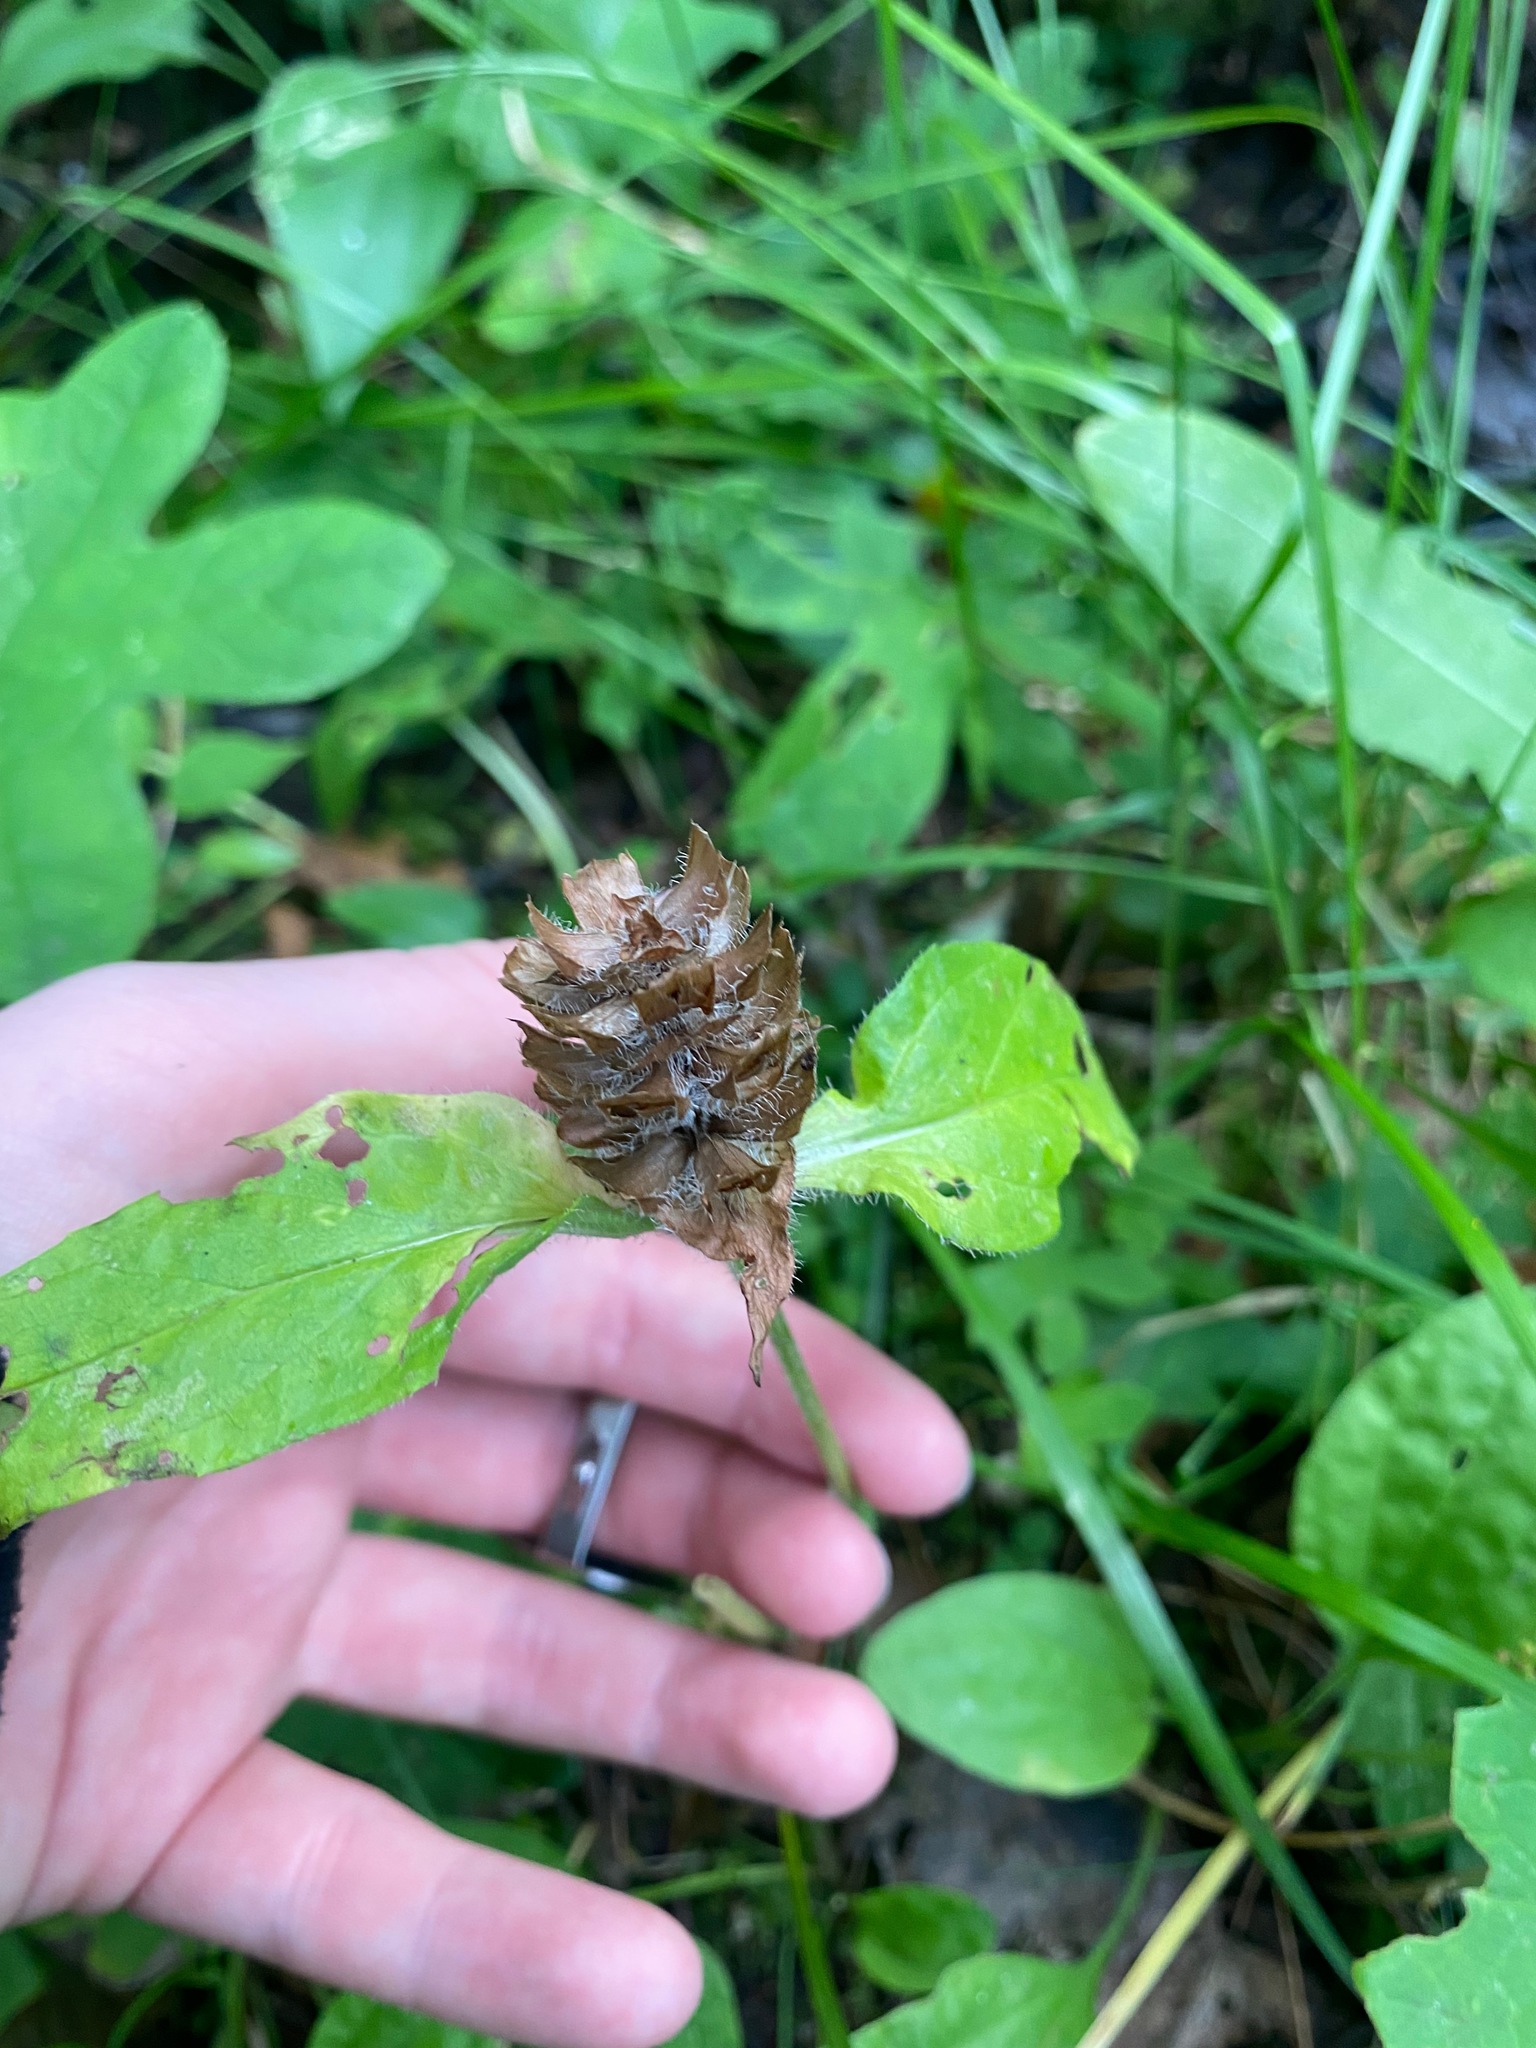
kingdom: Plantae
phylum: Tracheophyta
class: Magnoliopsida
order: Lamiales
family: Lamiaceae
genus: Prunella
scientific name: Prunella vulgaris
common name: Heal-all
